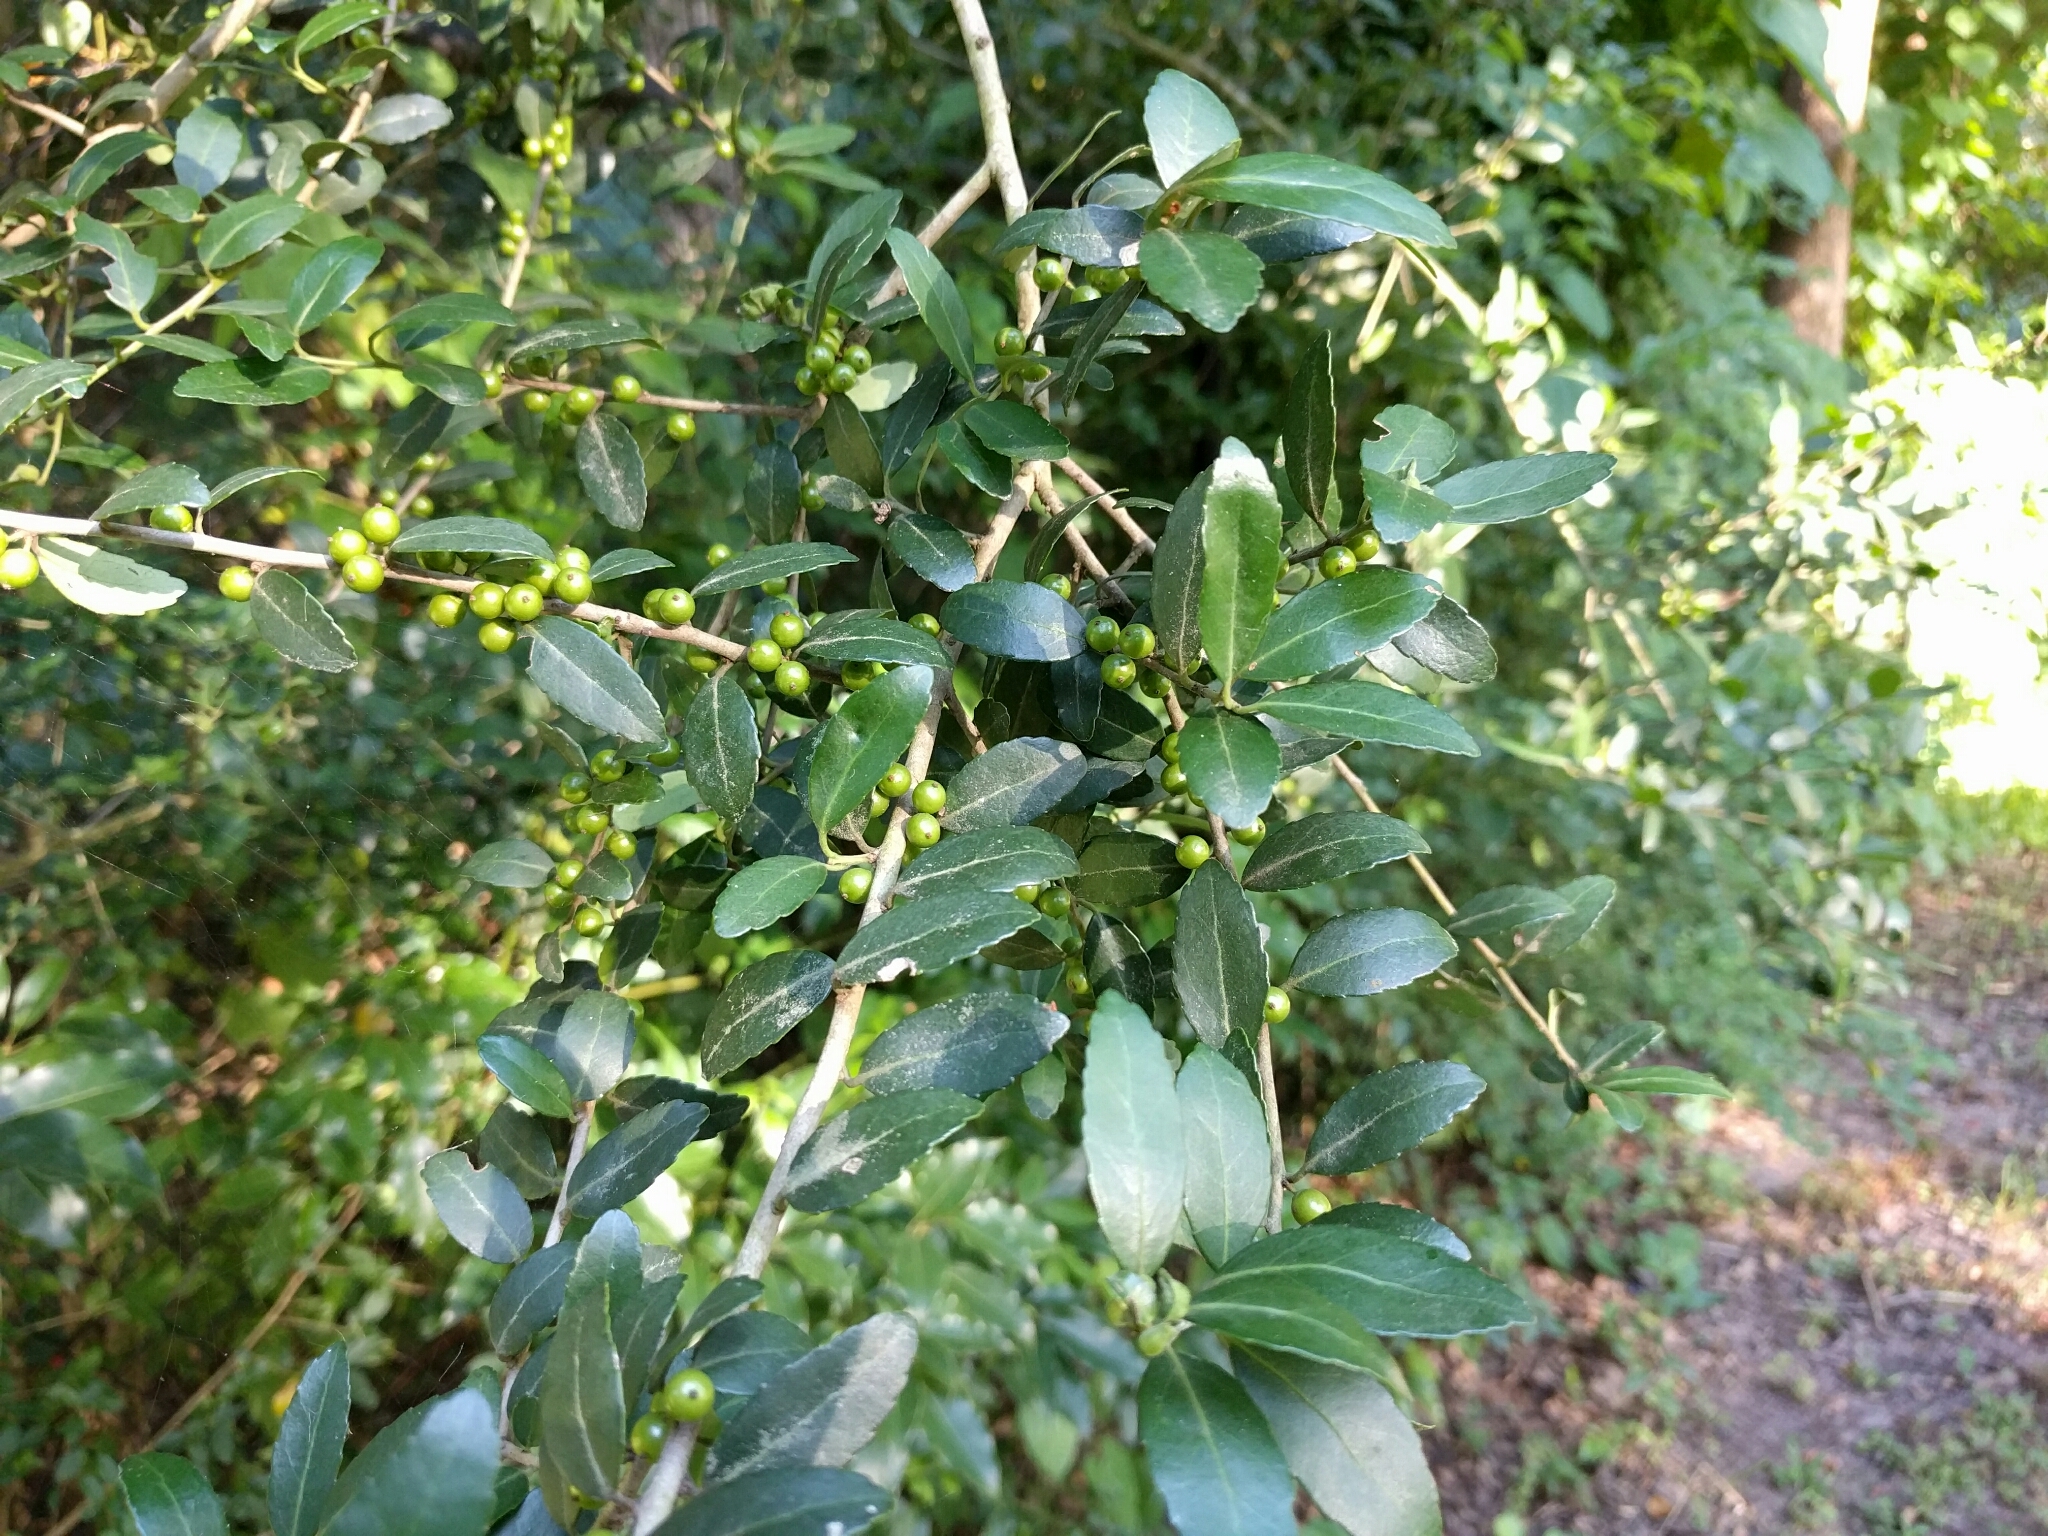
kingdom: Plantae
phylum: Tracheophyta
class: Magnoliopsida
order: Aquifoliales
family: Aquifoliaceae
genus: Ilex
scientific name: Ilex vomitoria
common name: Yaupon holly
